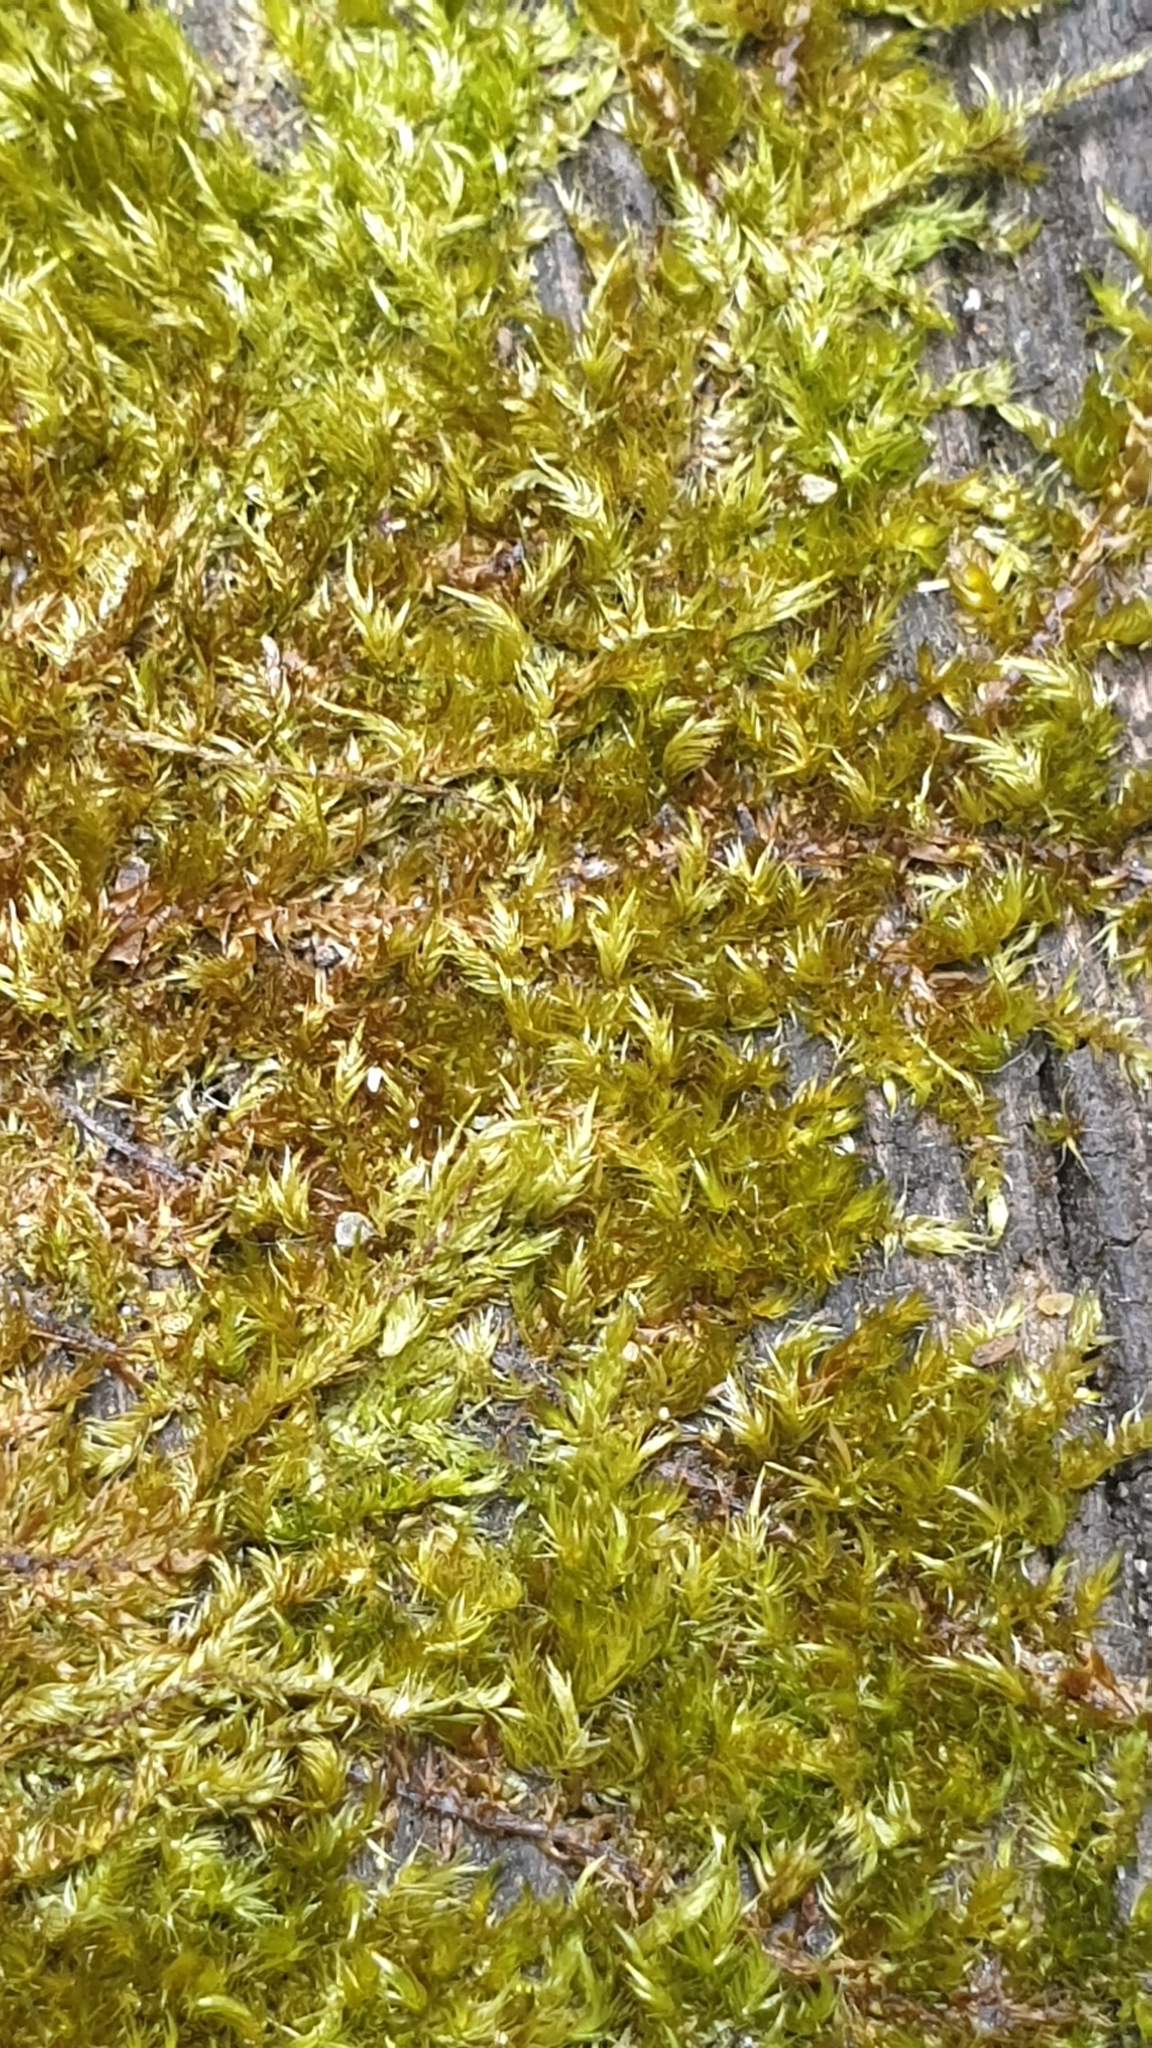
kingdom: Plantae
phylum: Bryophyta
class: Bryopsida
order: Hypnales
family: Sematophyllaceae
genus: Sematophyllum
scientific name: Sematophyllum homomallum
